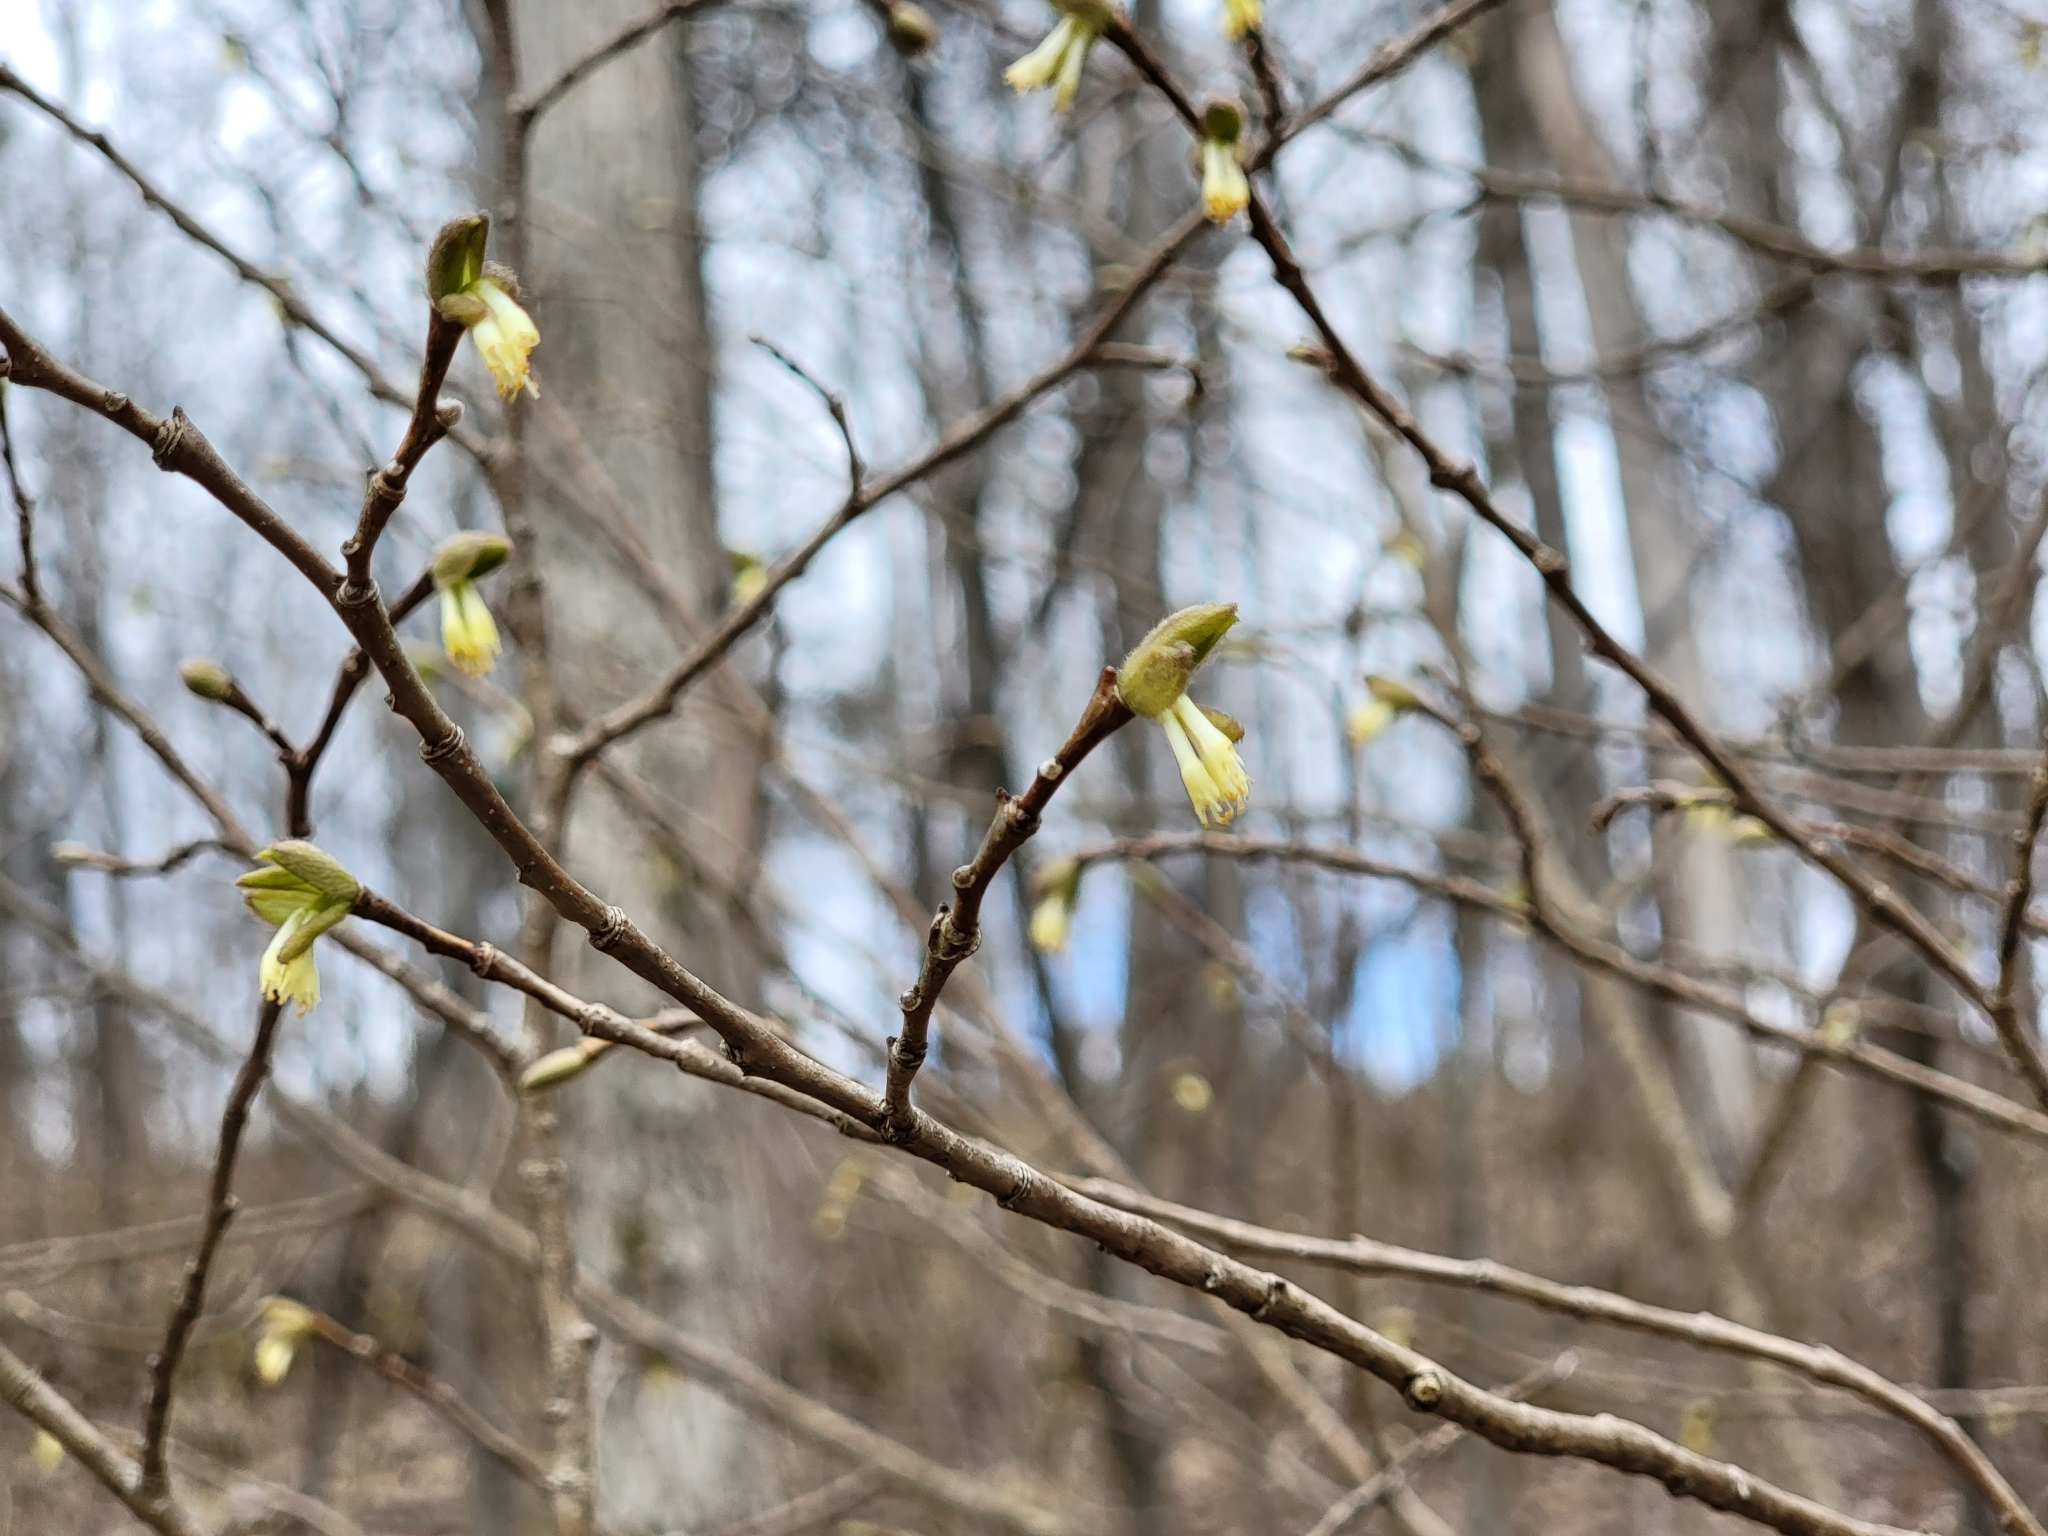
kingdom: Plantae
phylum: Tracheophyta
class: Magnoliopsida
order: Malvales
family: Thymelaeaceae
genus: Dirca
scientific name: Dirca palustris
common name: Leatherwood
